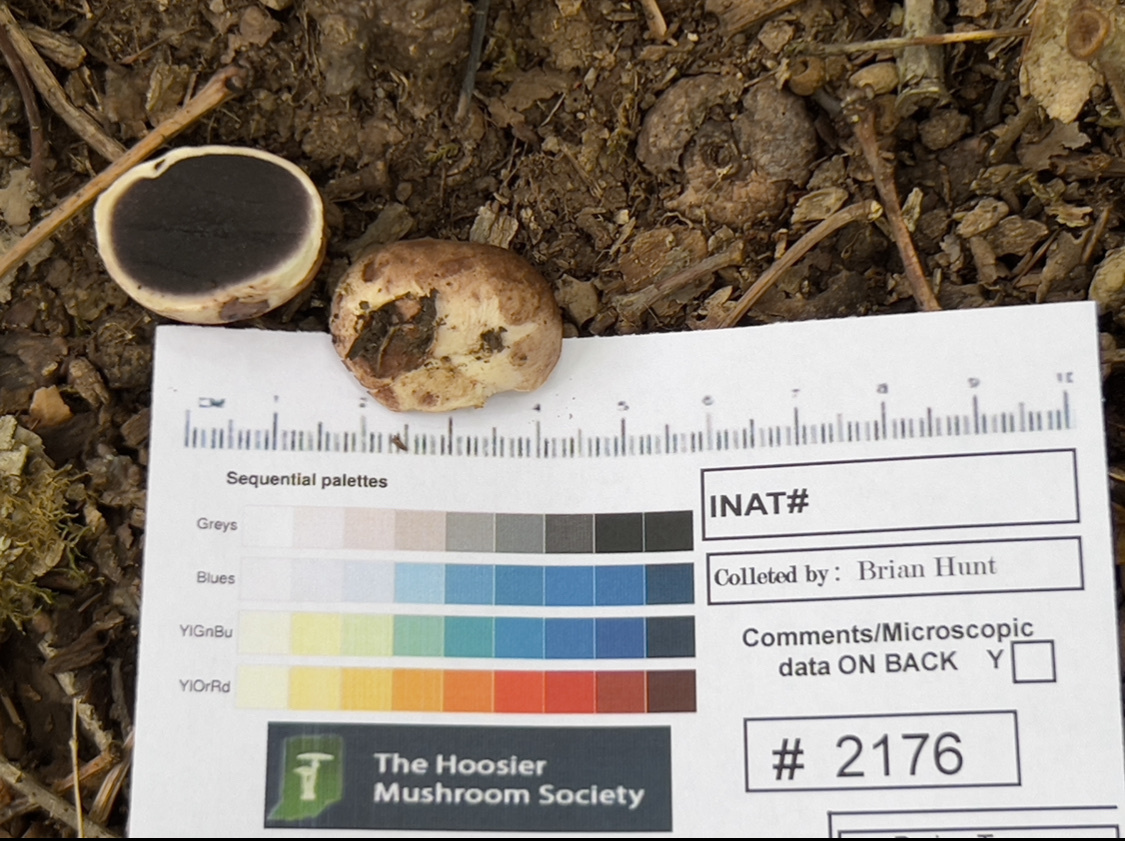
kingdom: Fungi
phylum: Basidiomycota
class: Agaricomycetes
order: Boletales
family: Sclerodermataceae
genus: Scleroderma
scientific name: Scleroderma cepa
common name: Onion earthball
